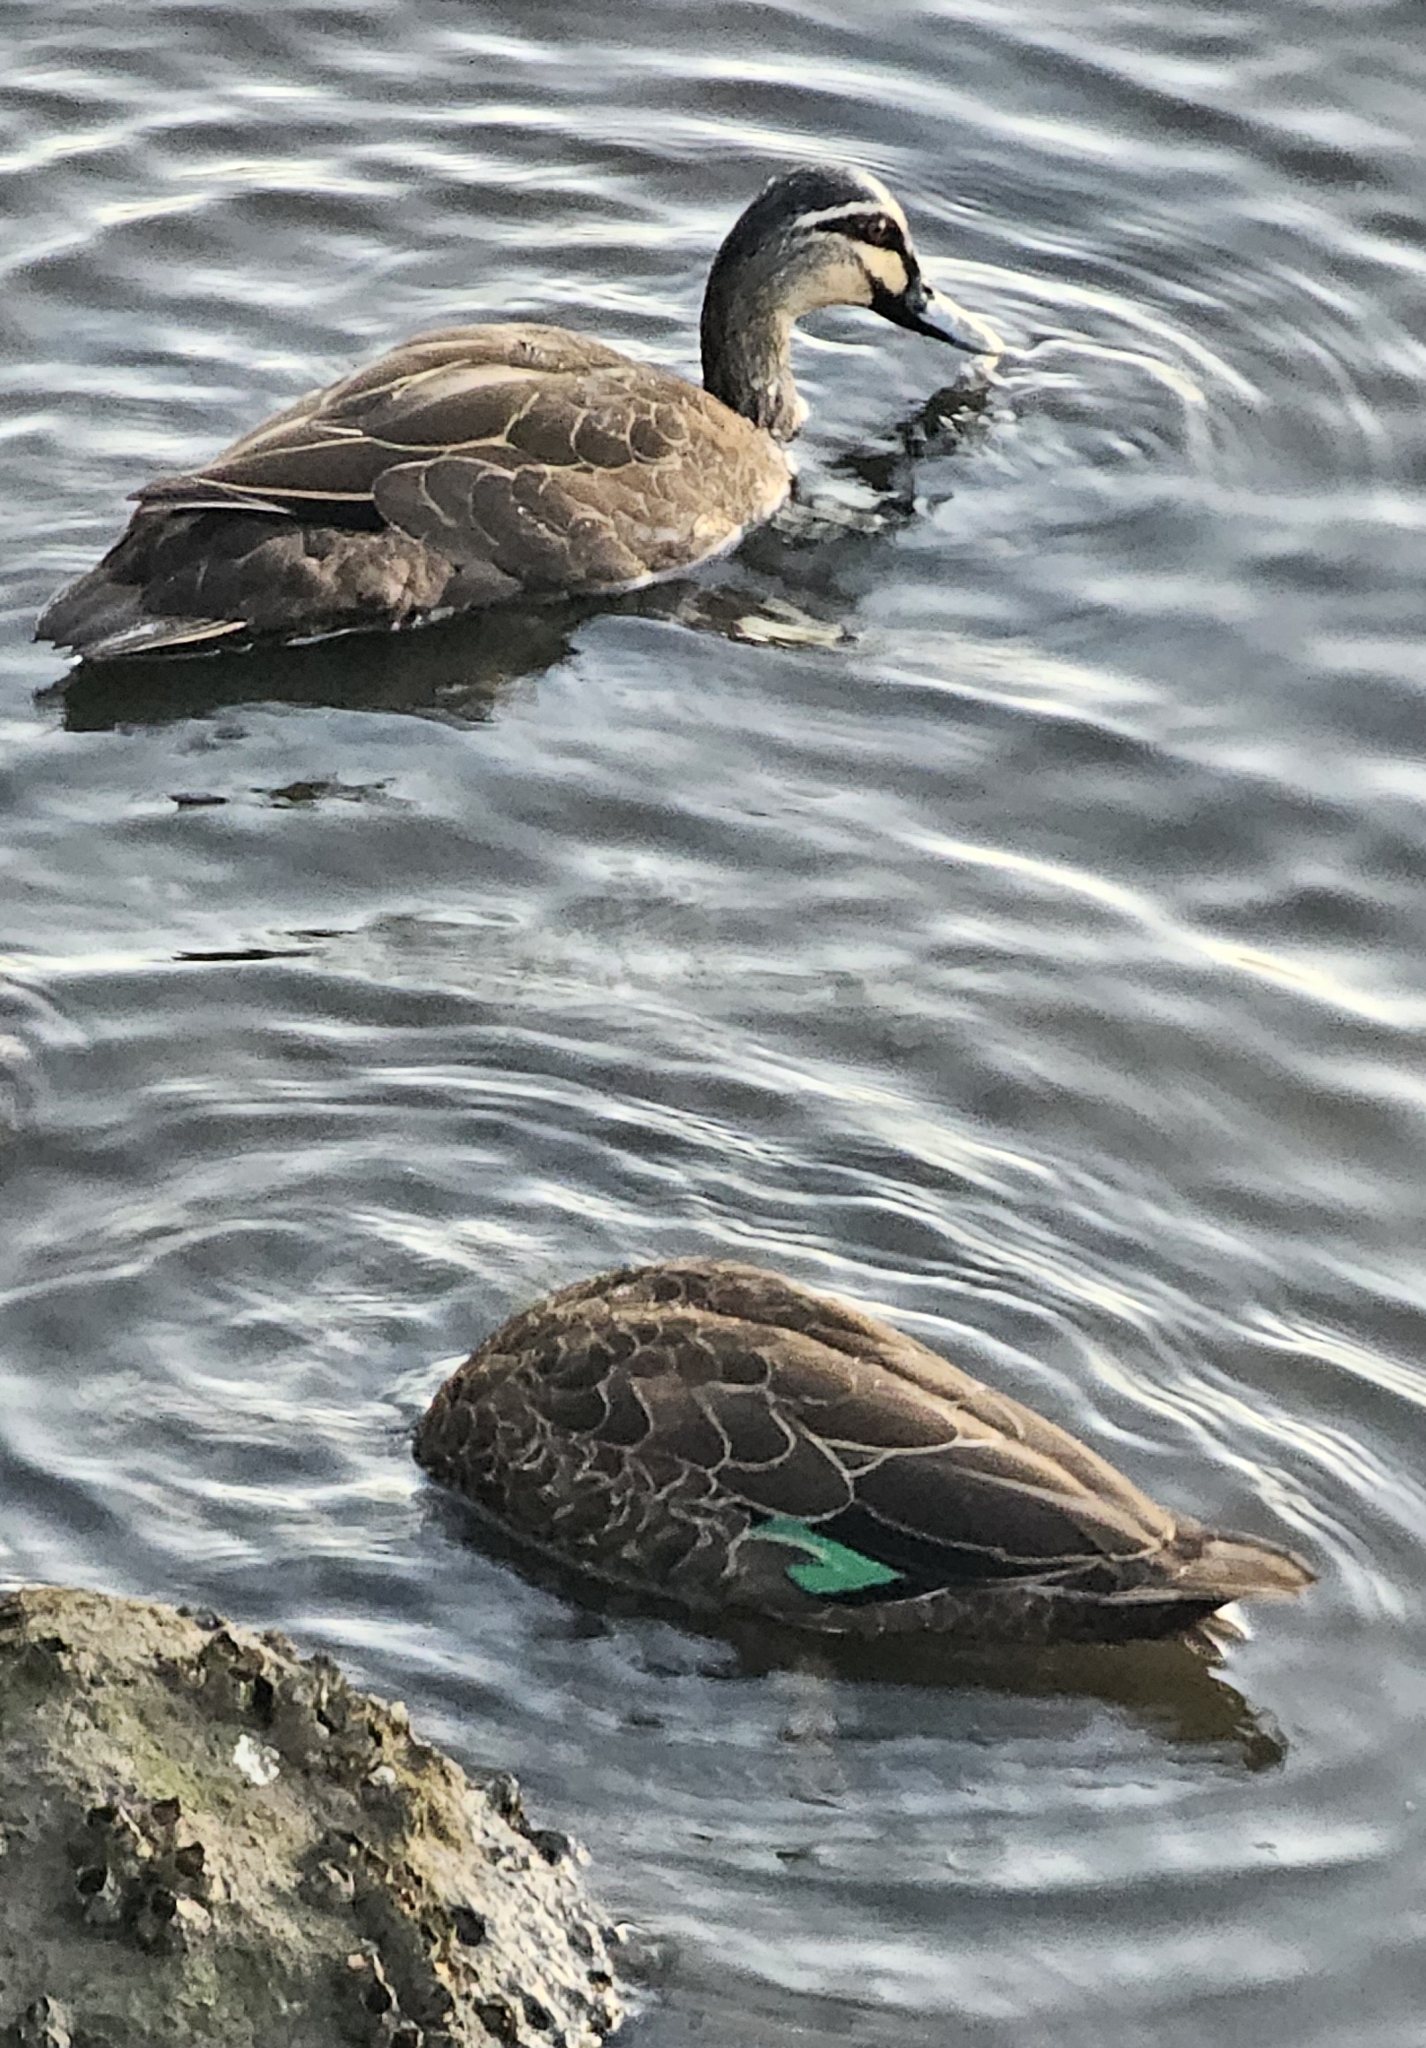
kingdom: Animalia
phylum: Chordata
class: Aves
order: Anseriformes
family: Anatidae
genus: Anas
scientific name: Anas superciliosa
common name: Pacific black duck
